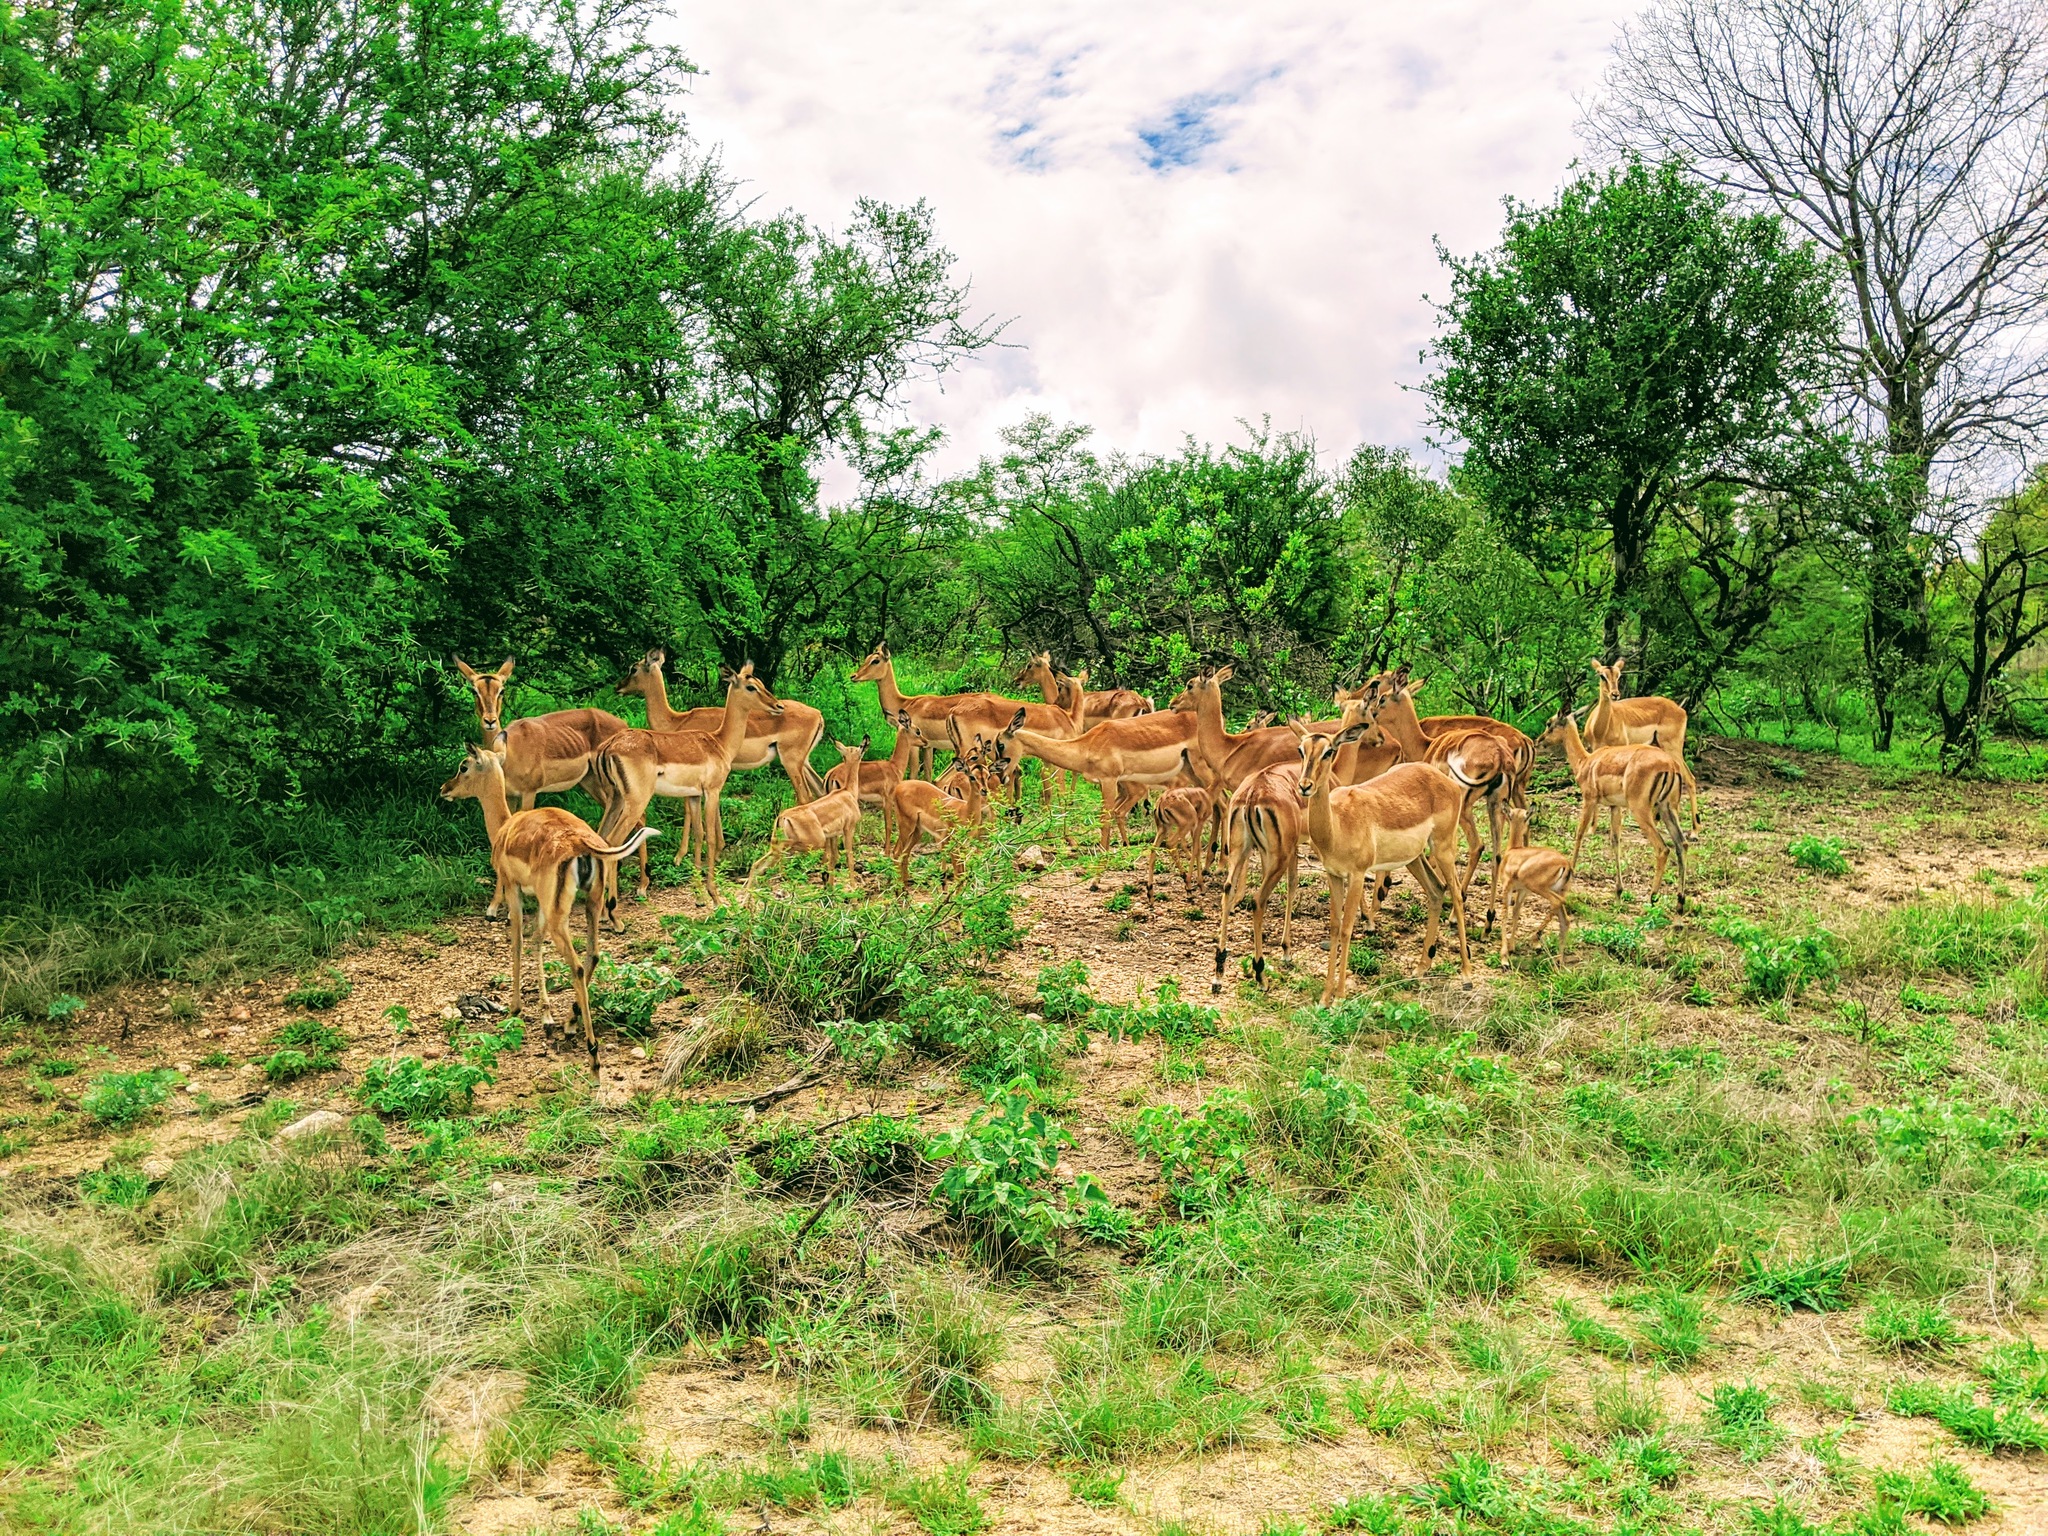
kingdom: Animalia
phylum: Chordata
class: Mammalia
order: Artiodactyla
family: Bovidae
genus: Aepyceros
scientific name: Aepyceros melampus
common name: Impala
